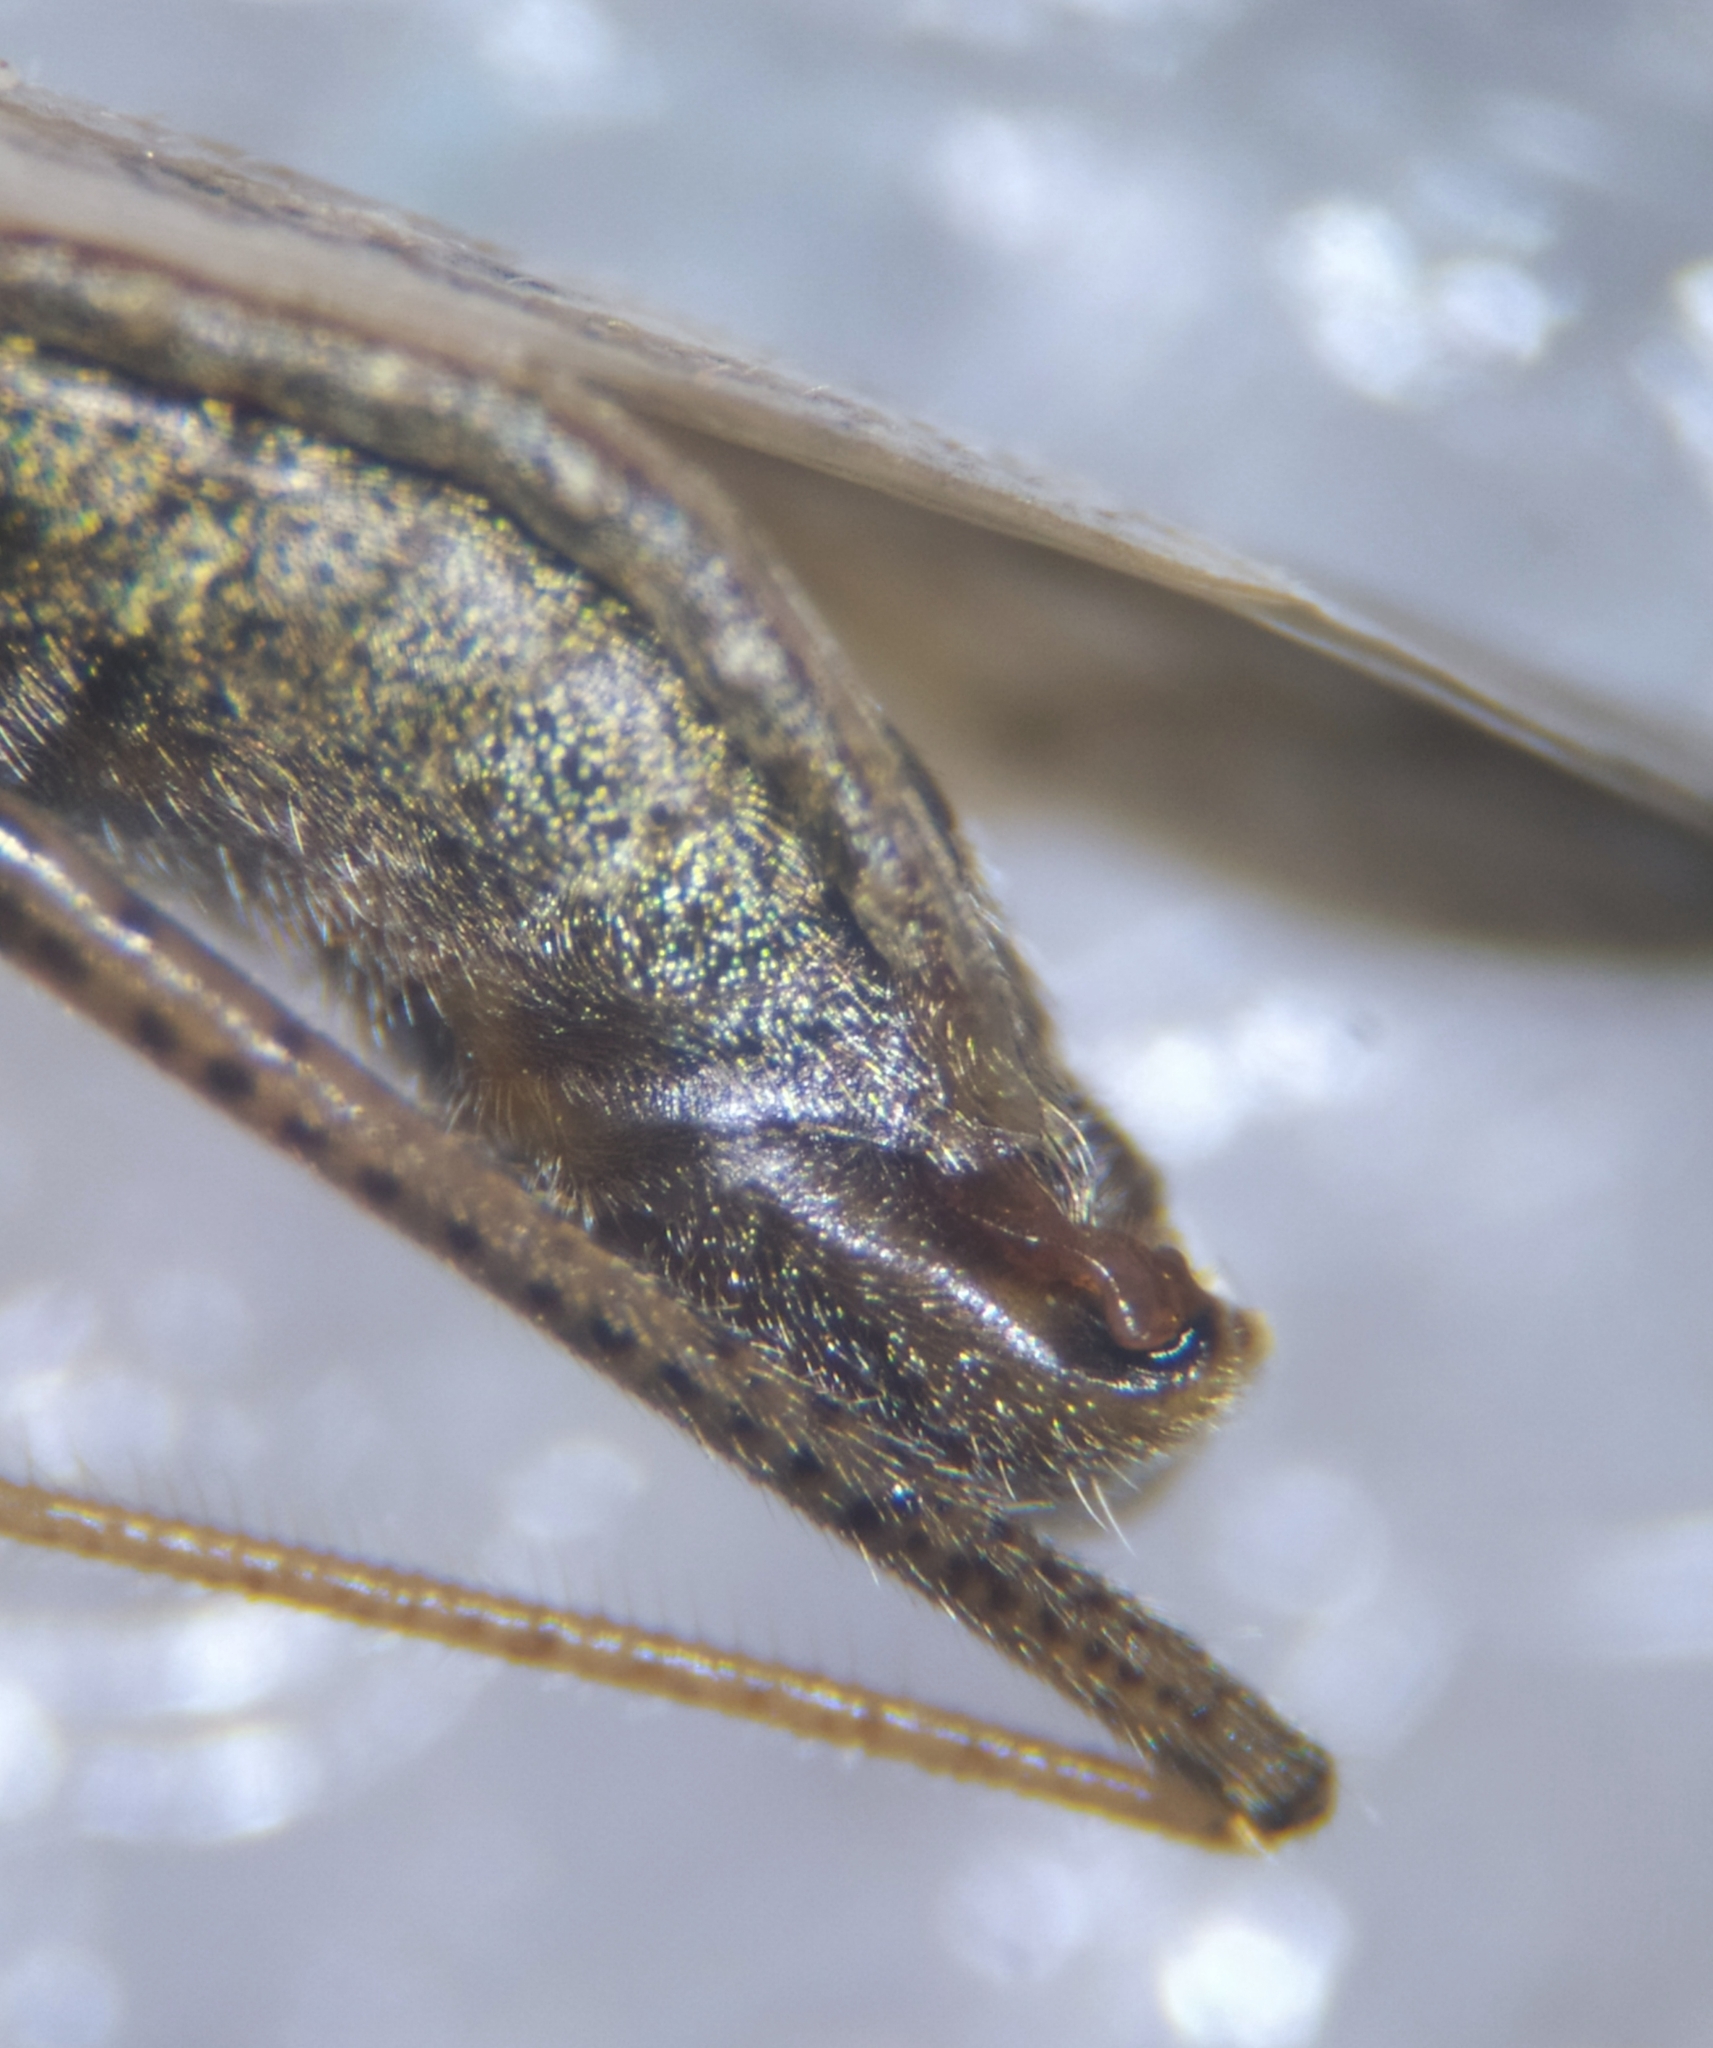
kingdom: Animalia
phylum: Arthropoda
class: Insecta
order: Hemiptera
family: Nabidae
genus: Nabis
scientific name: Nabis punctatus
